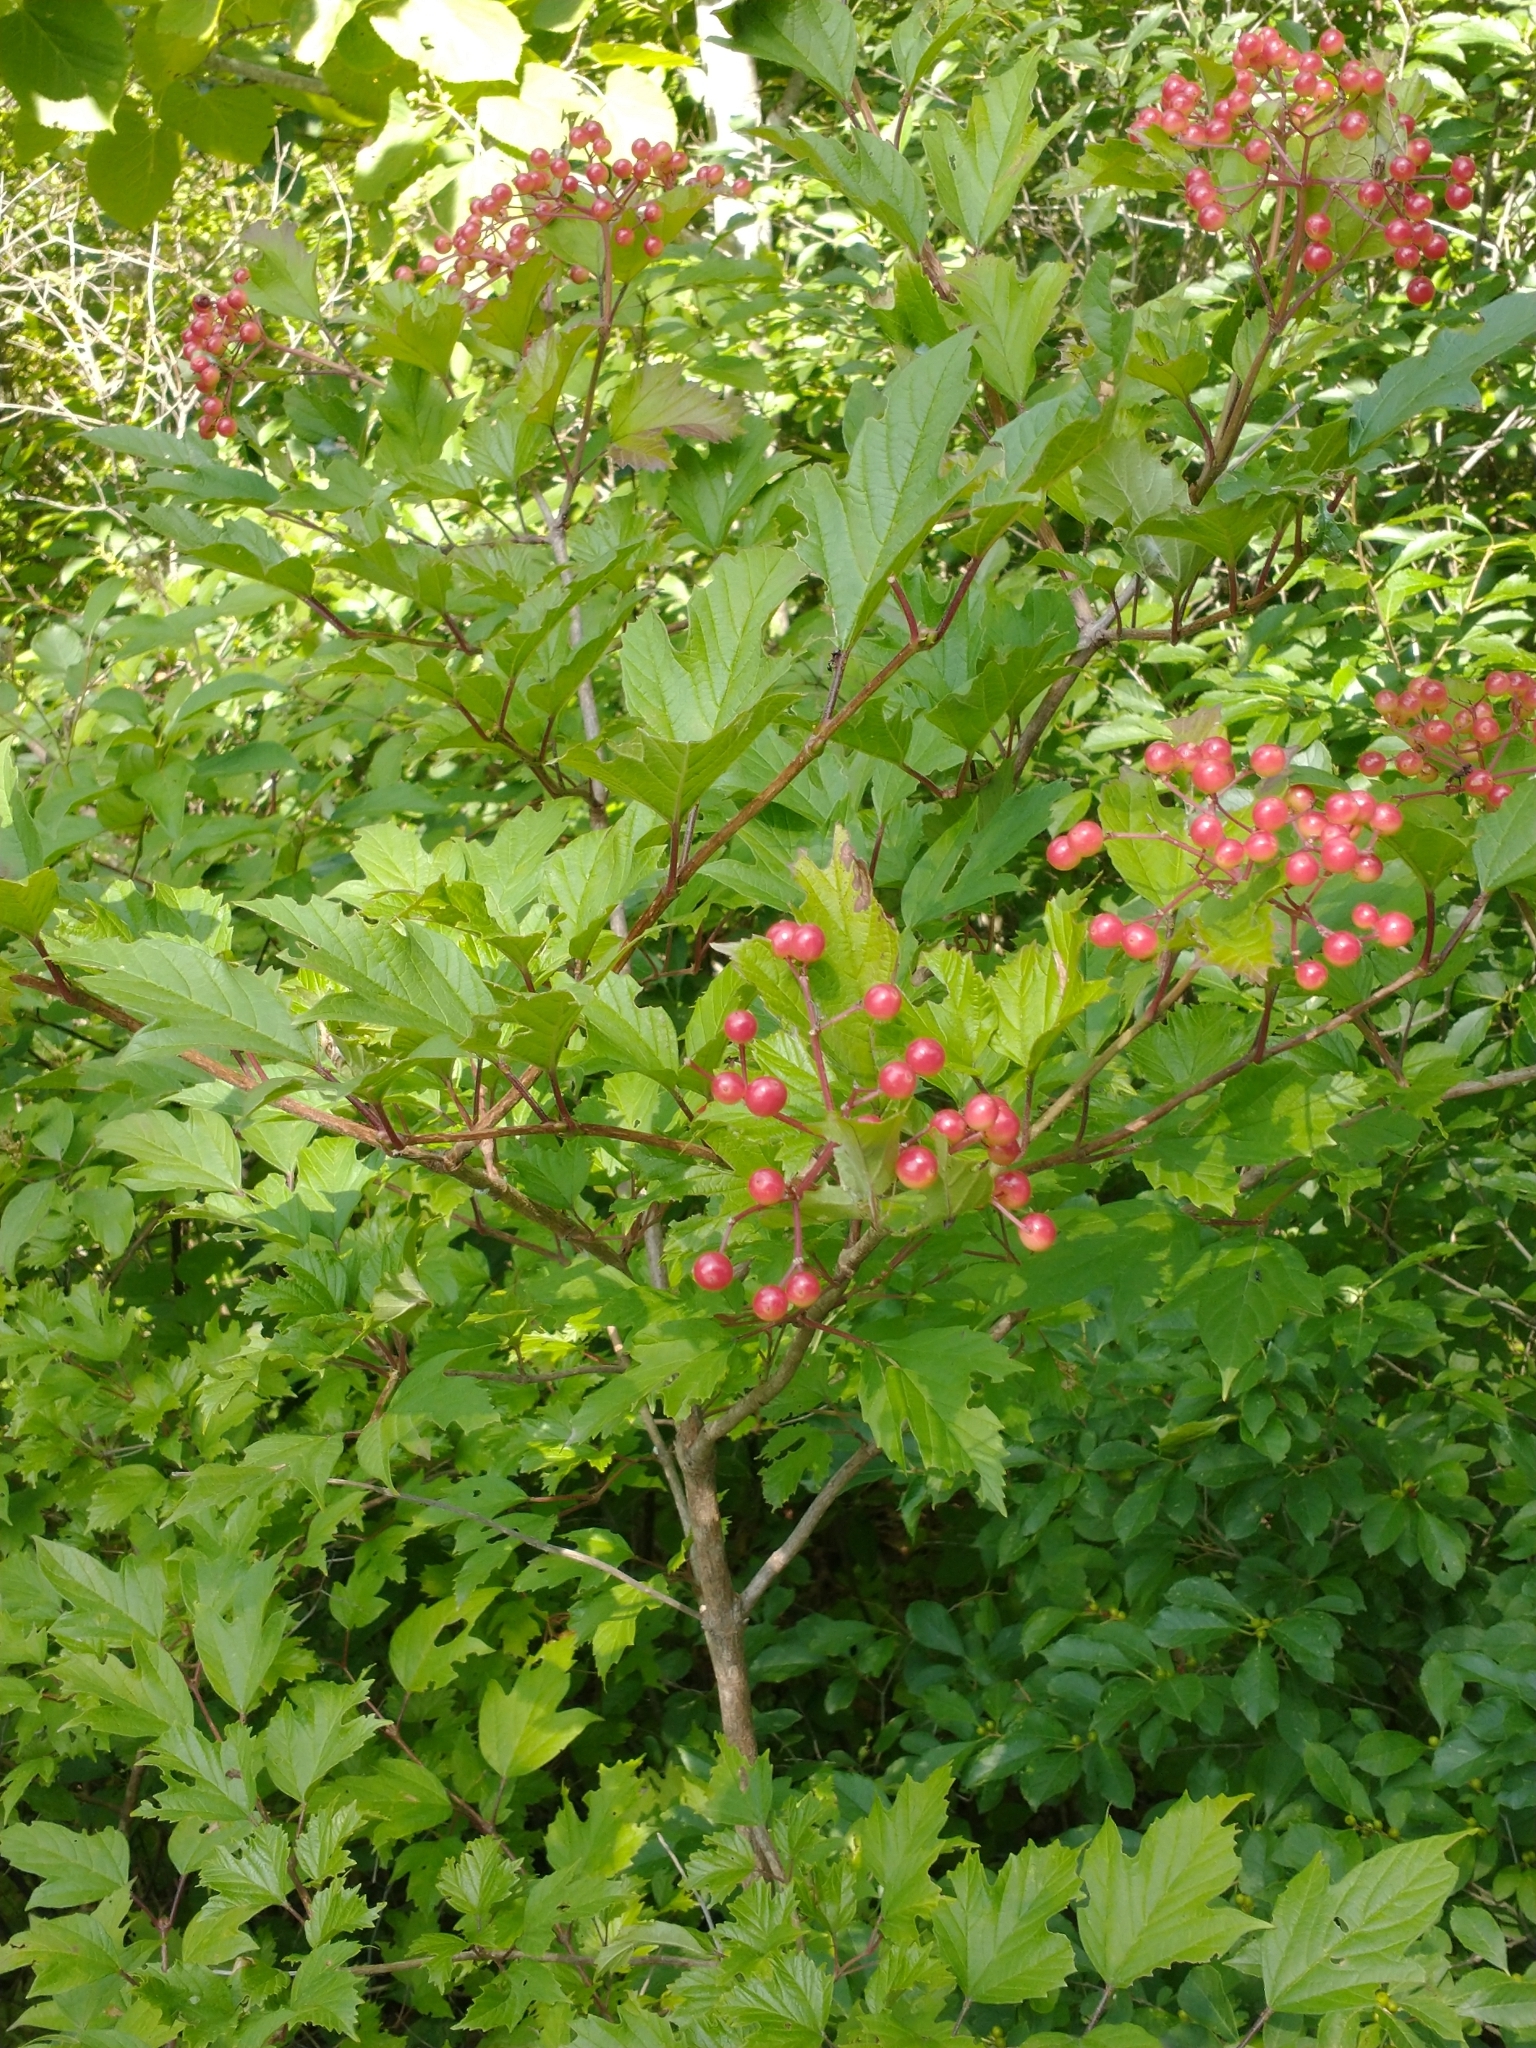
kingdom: Plantae
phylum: Tracheophyta
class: Magnoliopsida
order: Dipsacales
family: Viburnaceae
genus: Viburnum
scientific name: Viburnum opulus
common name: Guelder-rose
